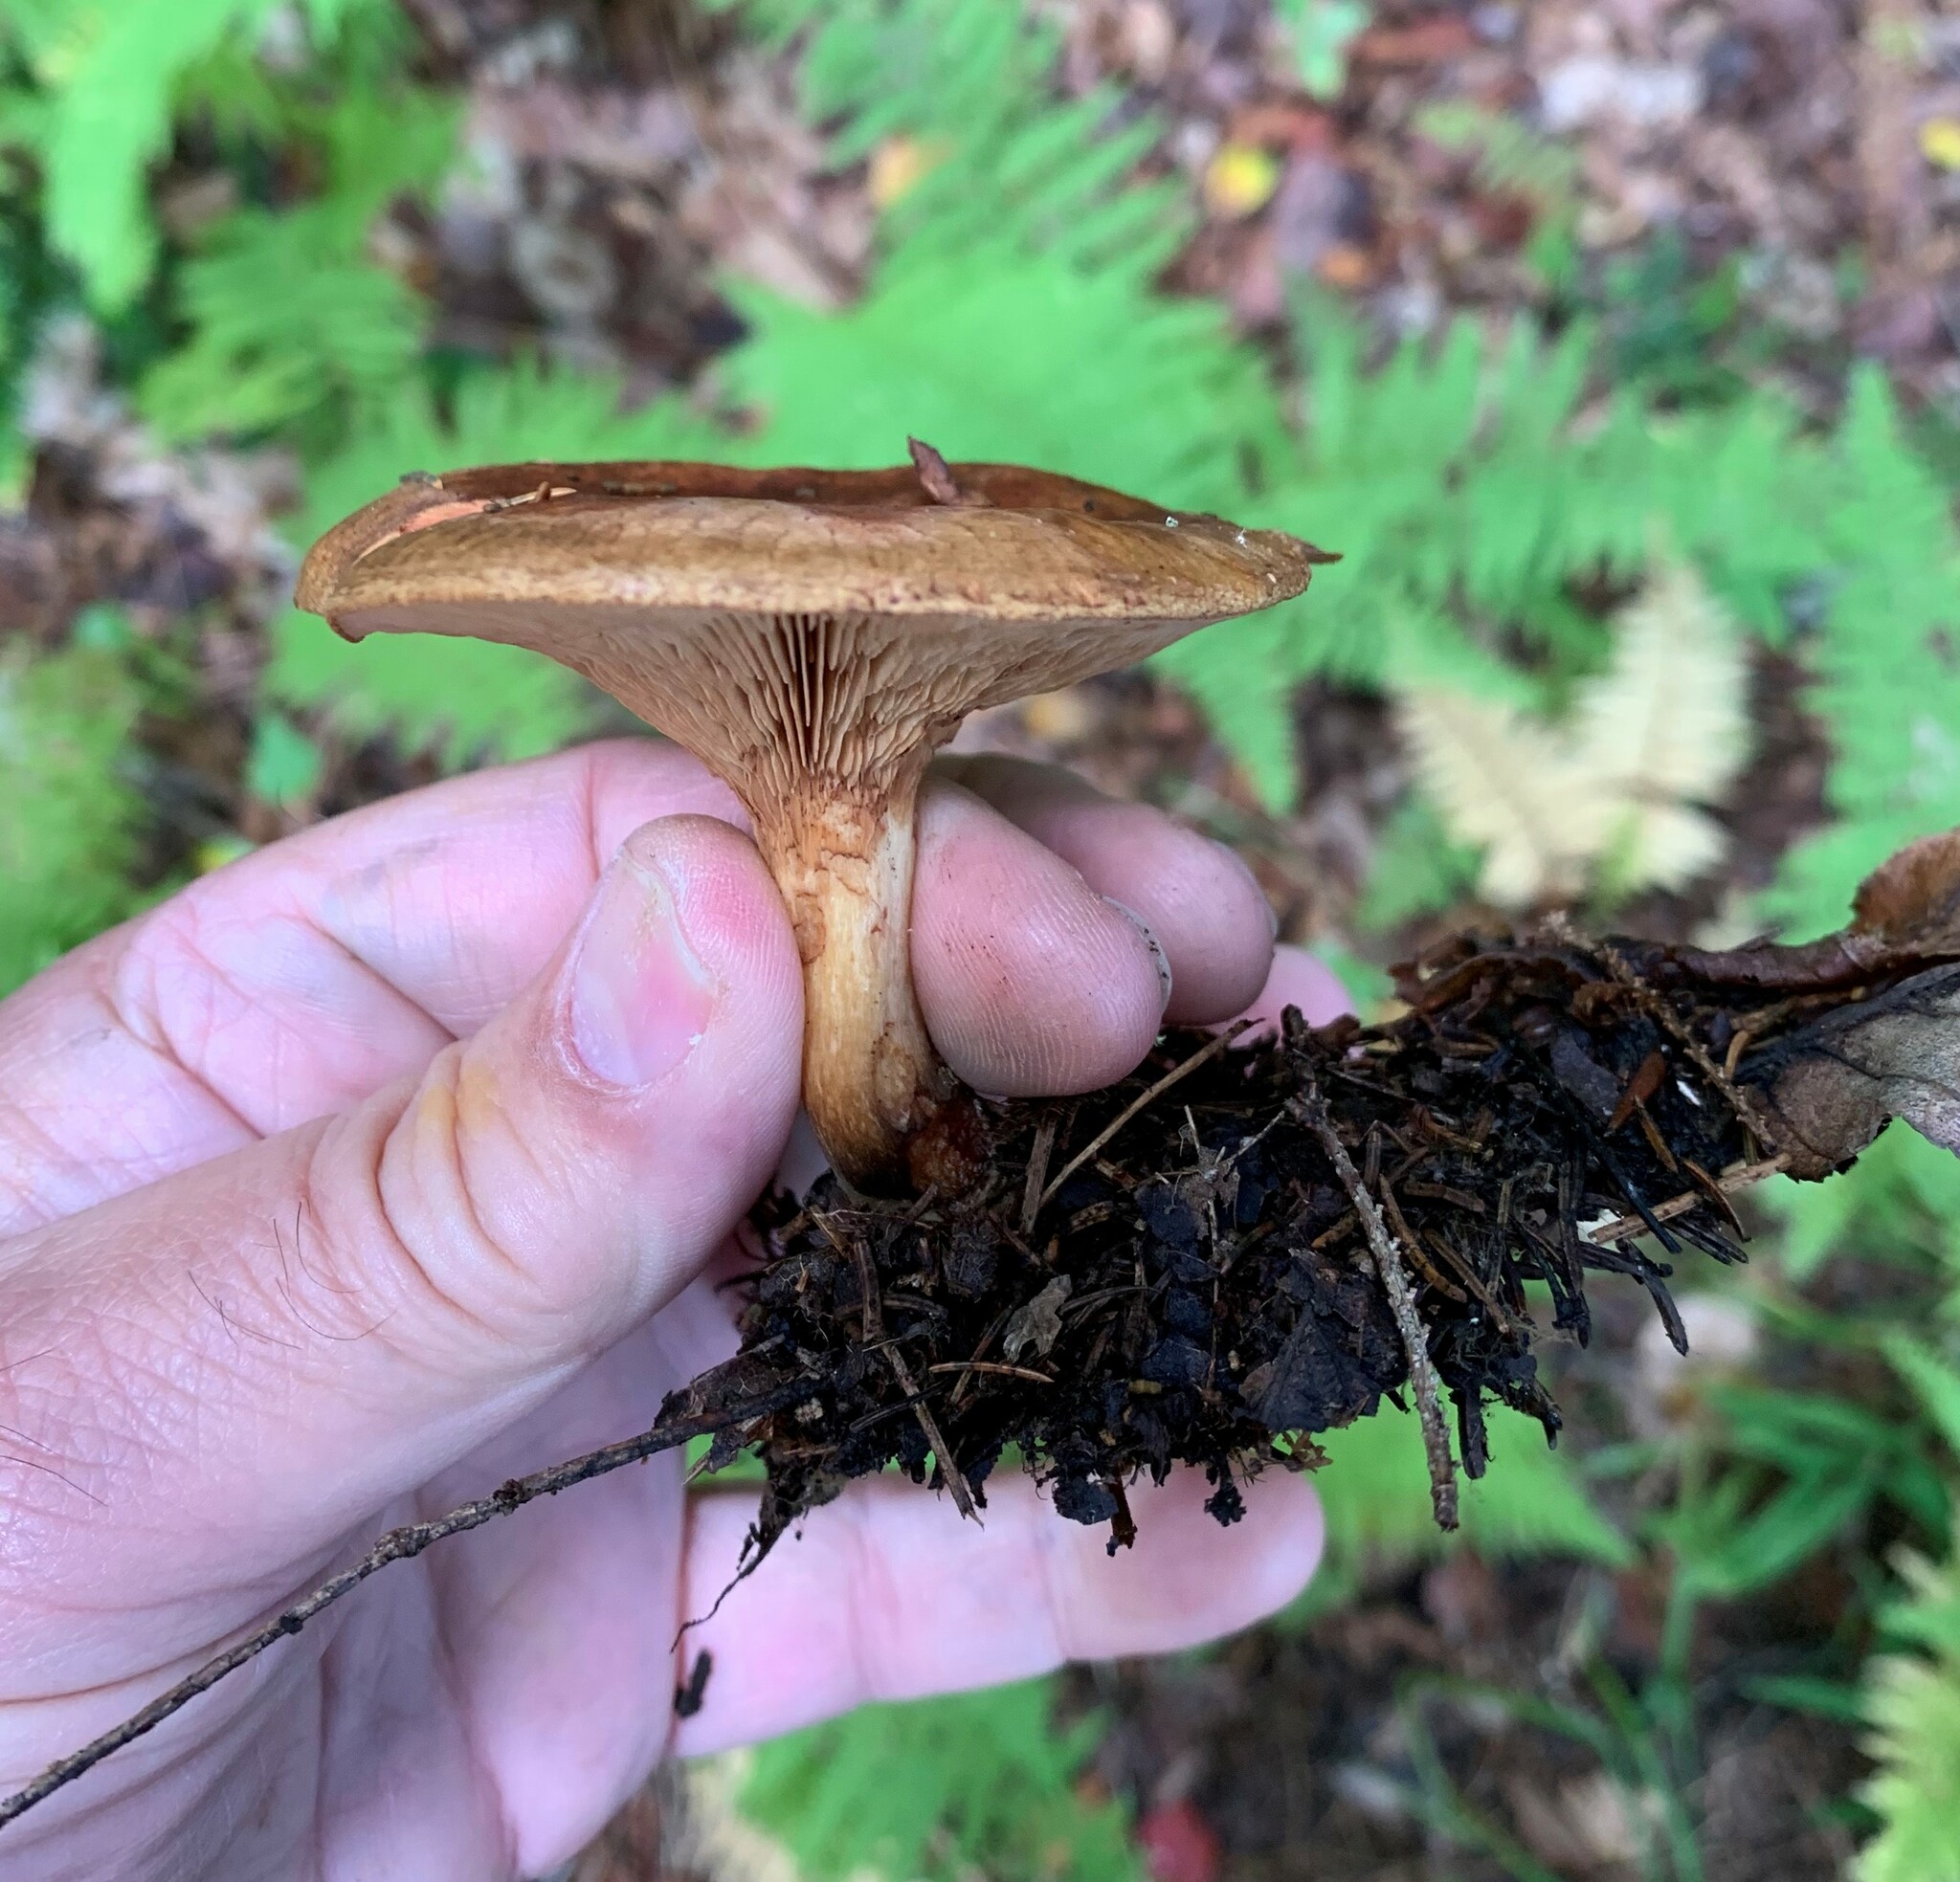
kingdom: Fungi
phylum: Basidiomycota
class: Agaricomycetes
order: Boletales
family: Paxillaceae
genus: Paxillus
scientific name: Paxillus involutus
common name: Brown roll rim
